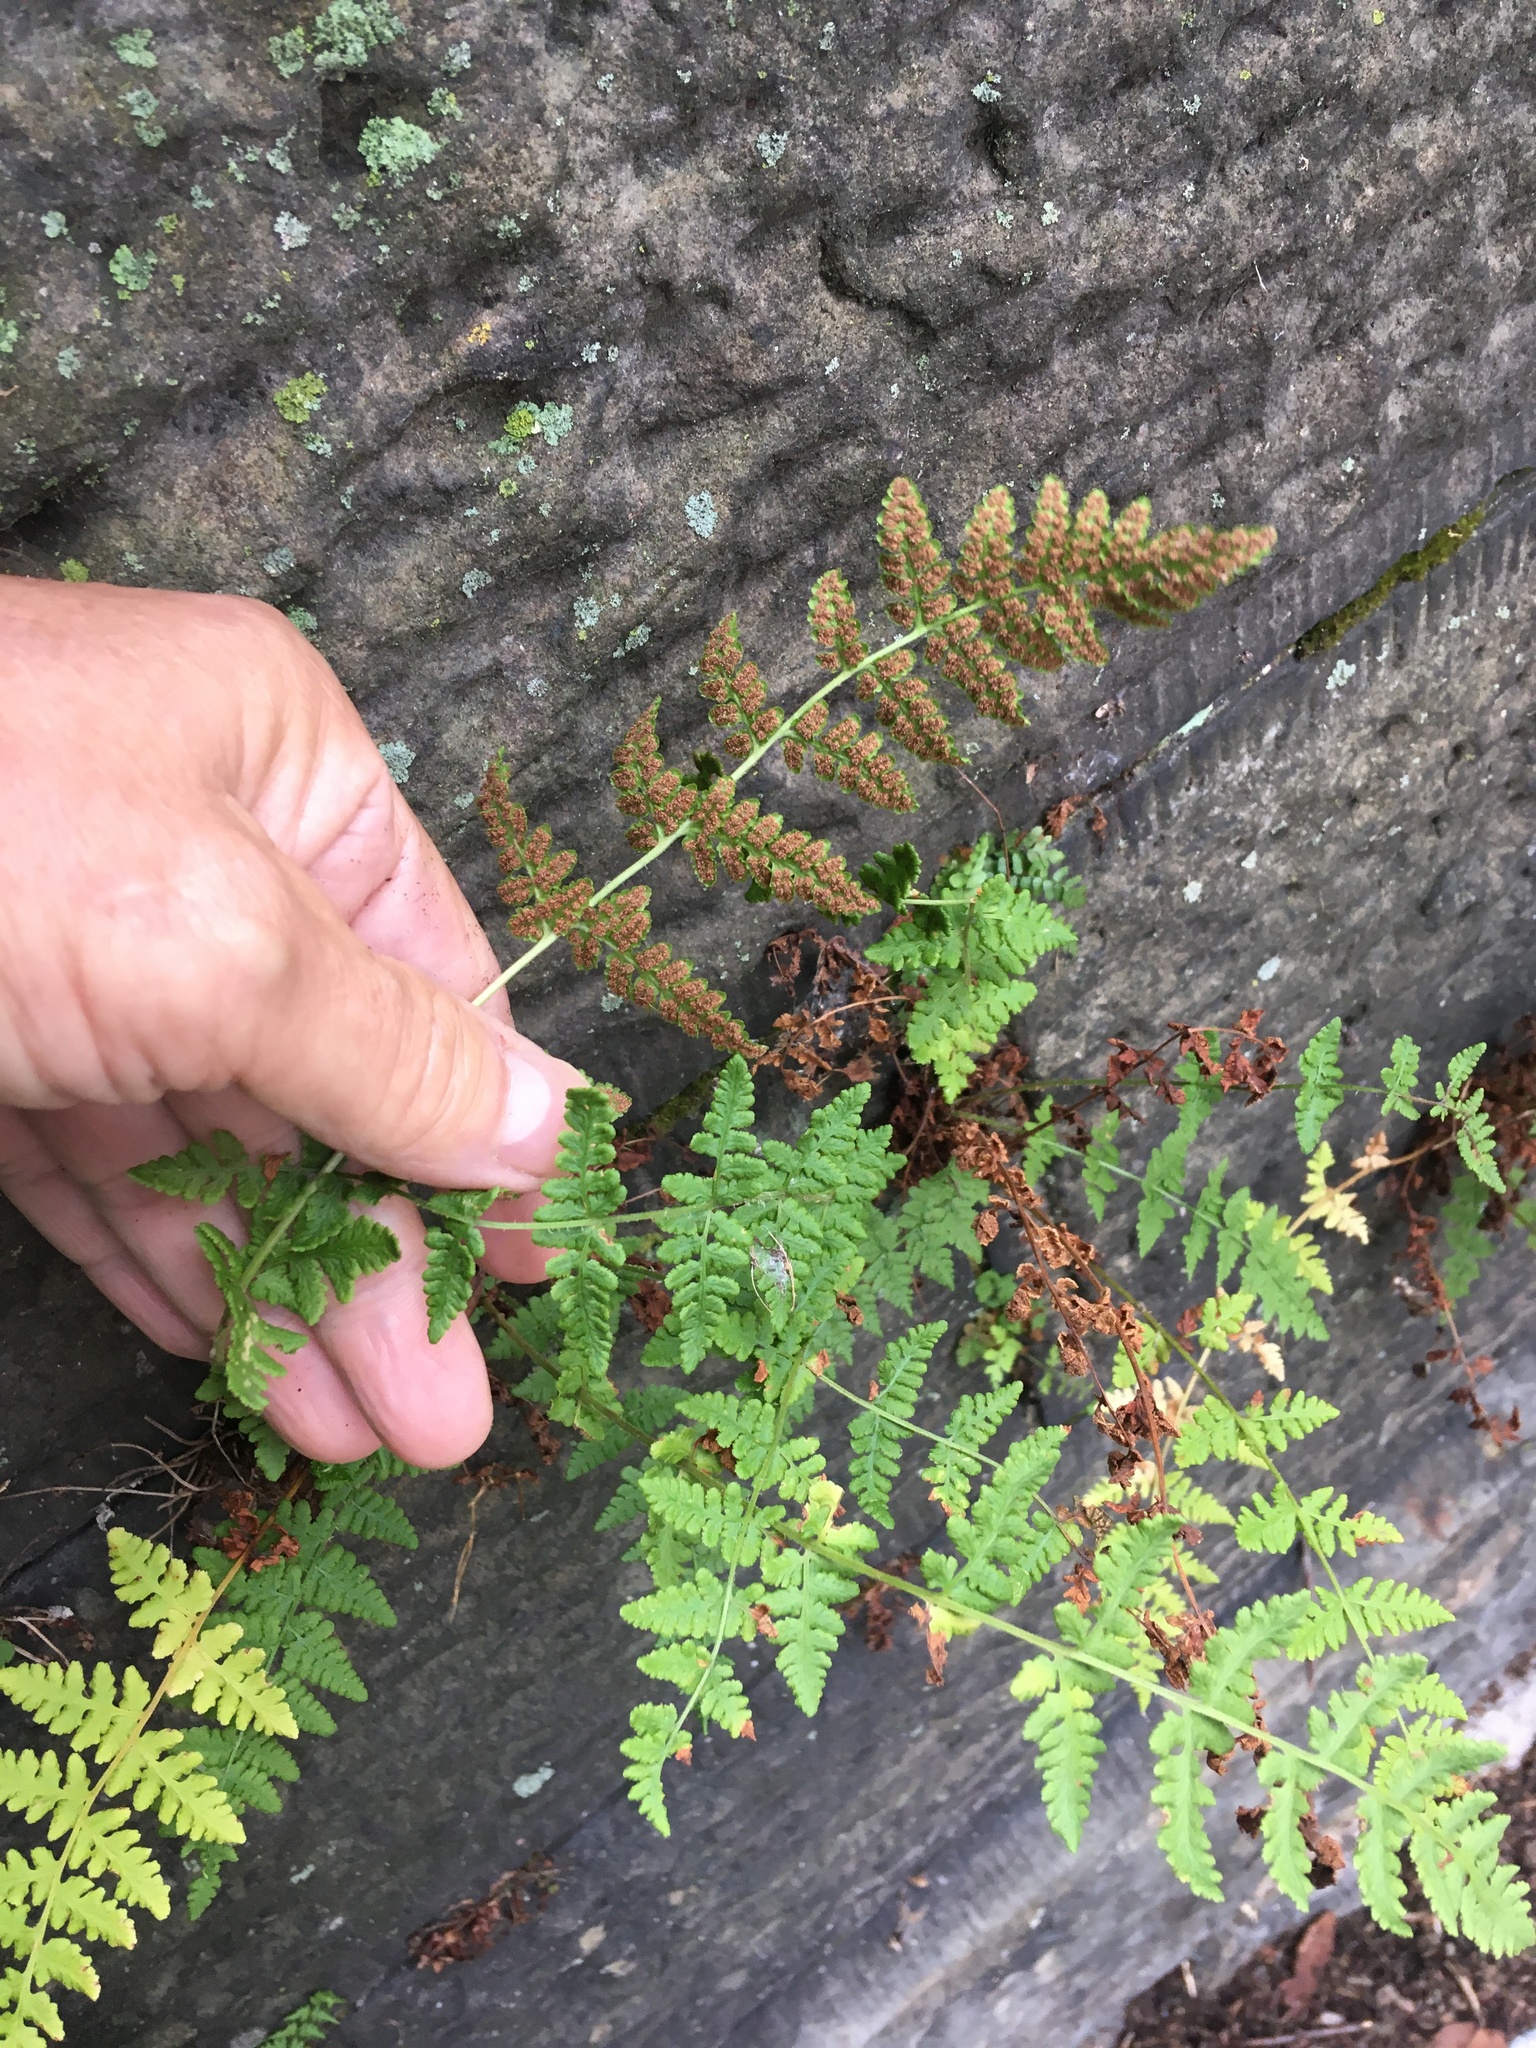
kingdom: Plantae
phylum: Tracheophyta
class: Polypodiopsida
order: Polypodiales
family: Woodsiaceae
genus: Physematium
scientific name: Physematium obtusum
